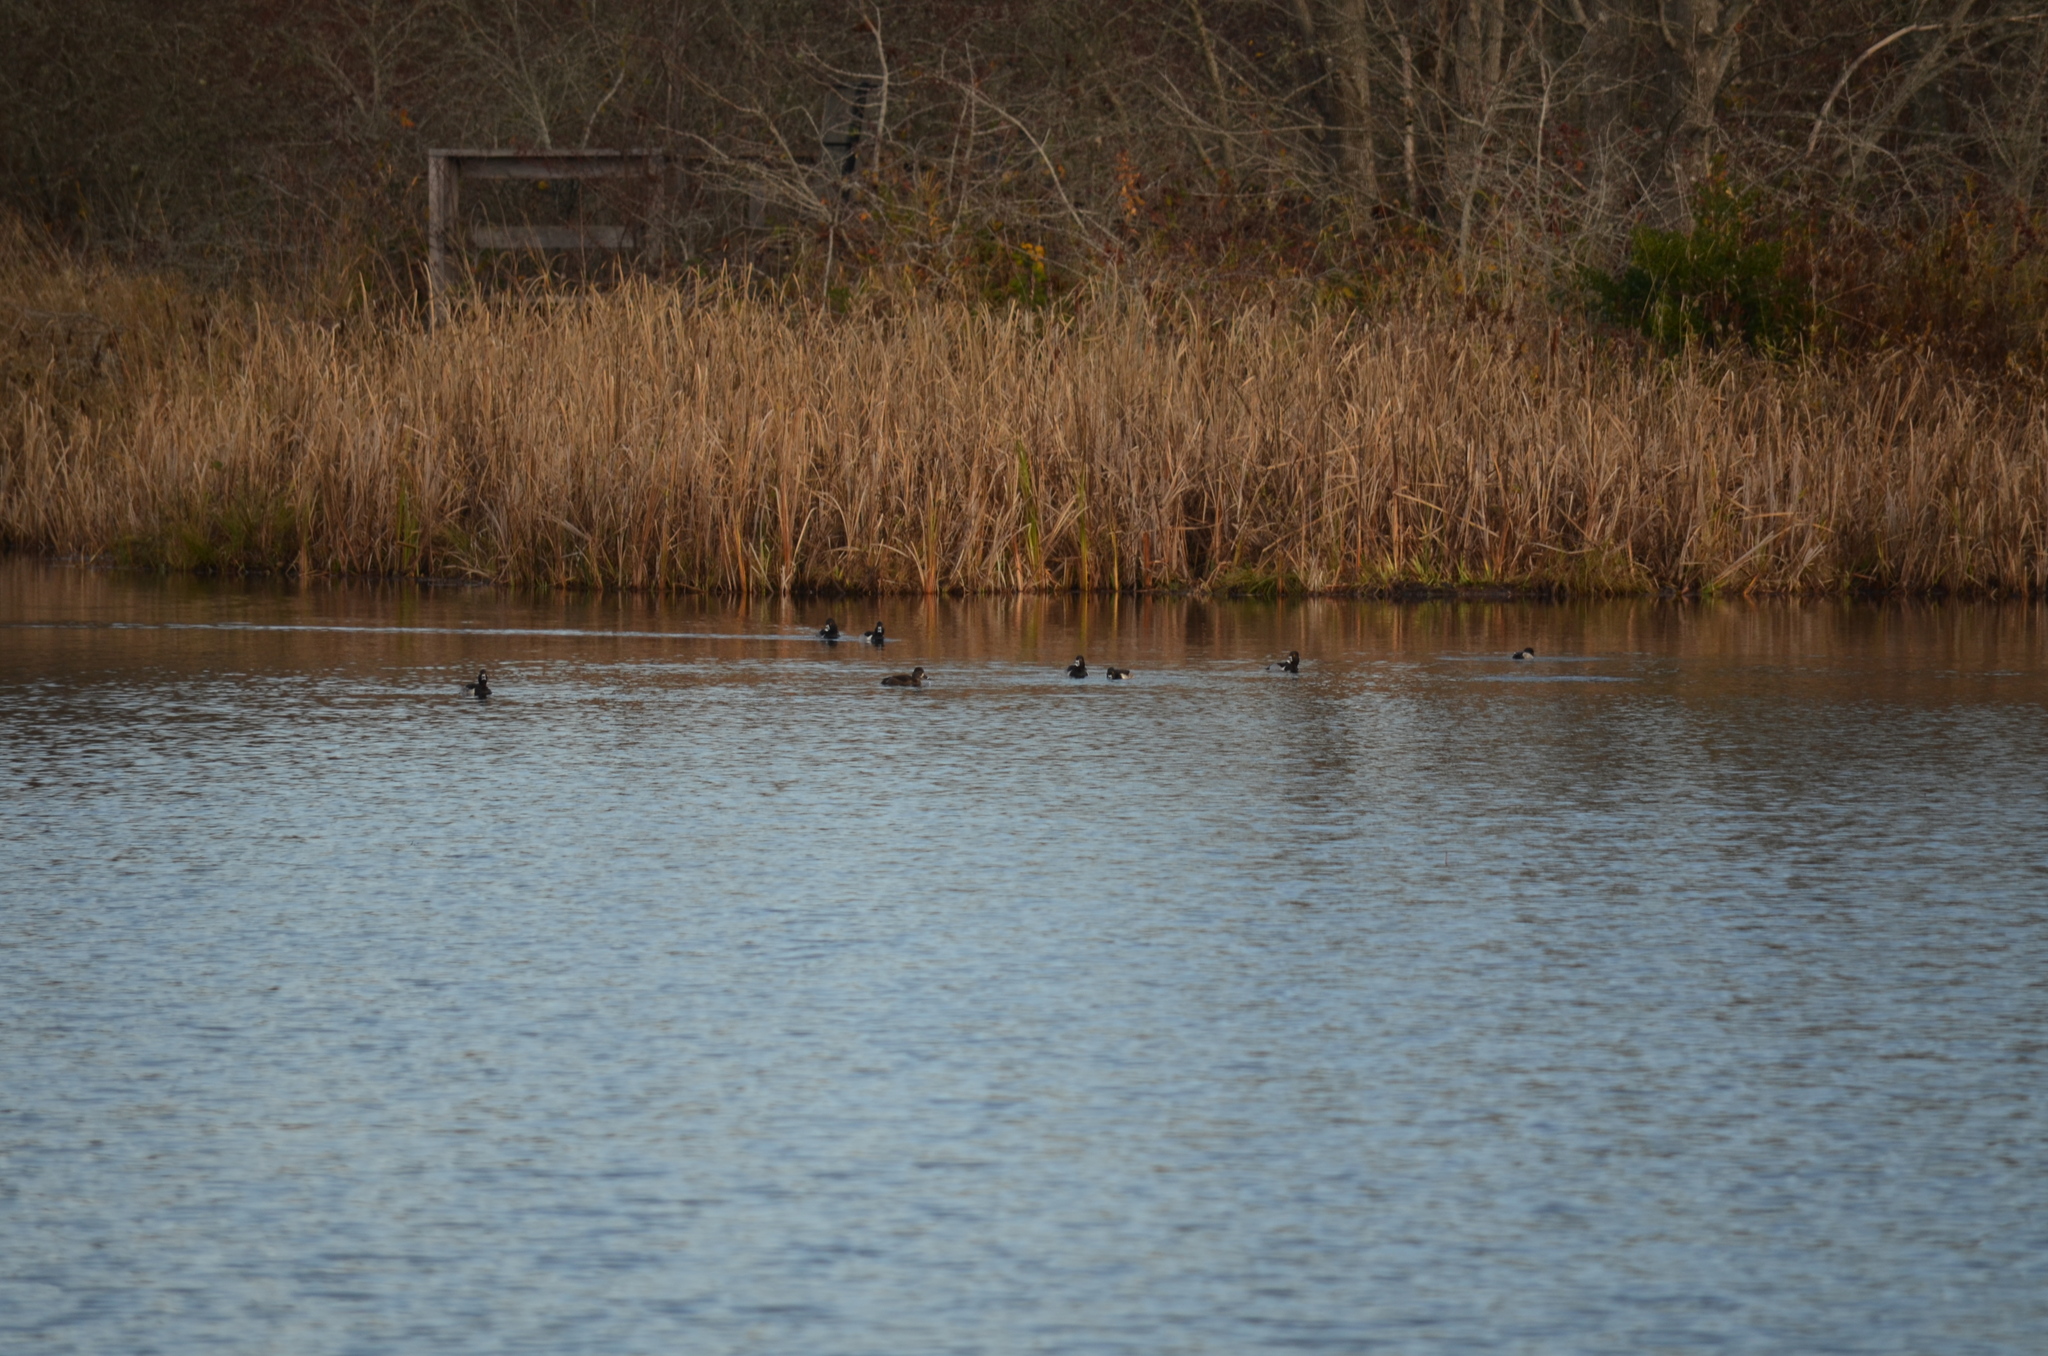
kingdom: Animalia
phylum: Chordata
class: Aves
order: Anseriformes
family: Anatidae
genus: Aythya
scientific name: Aythya collaris
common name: Ring-necked duck
